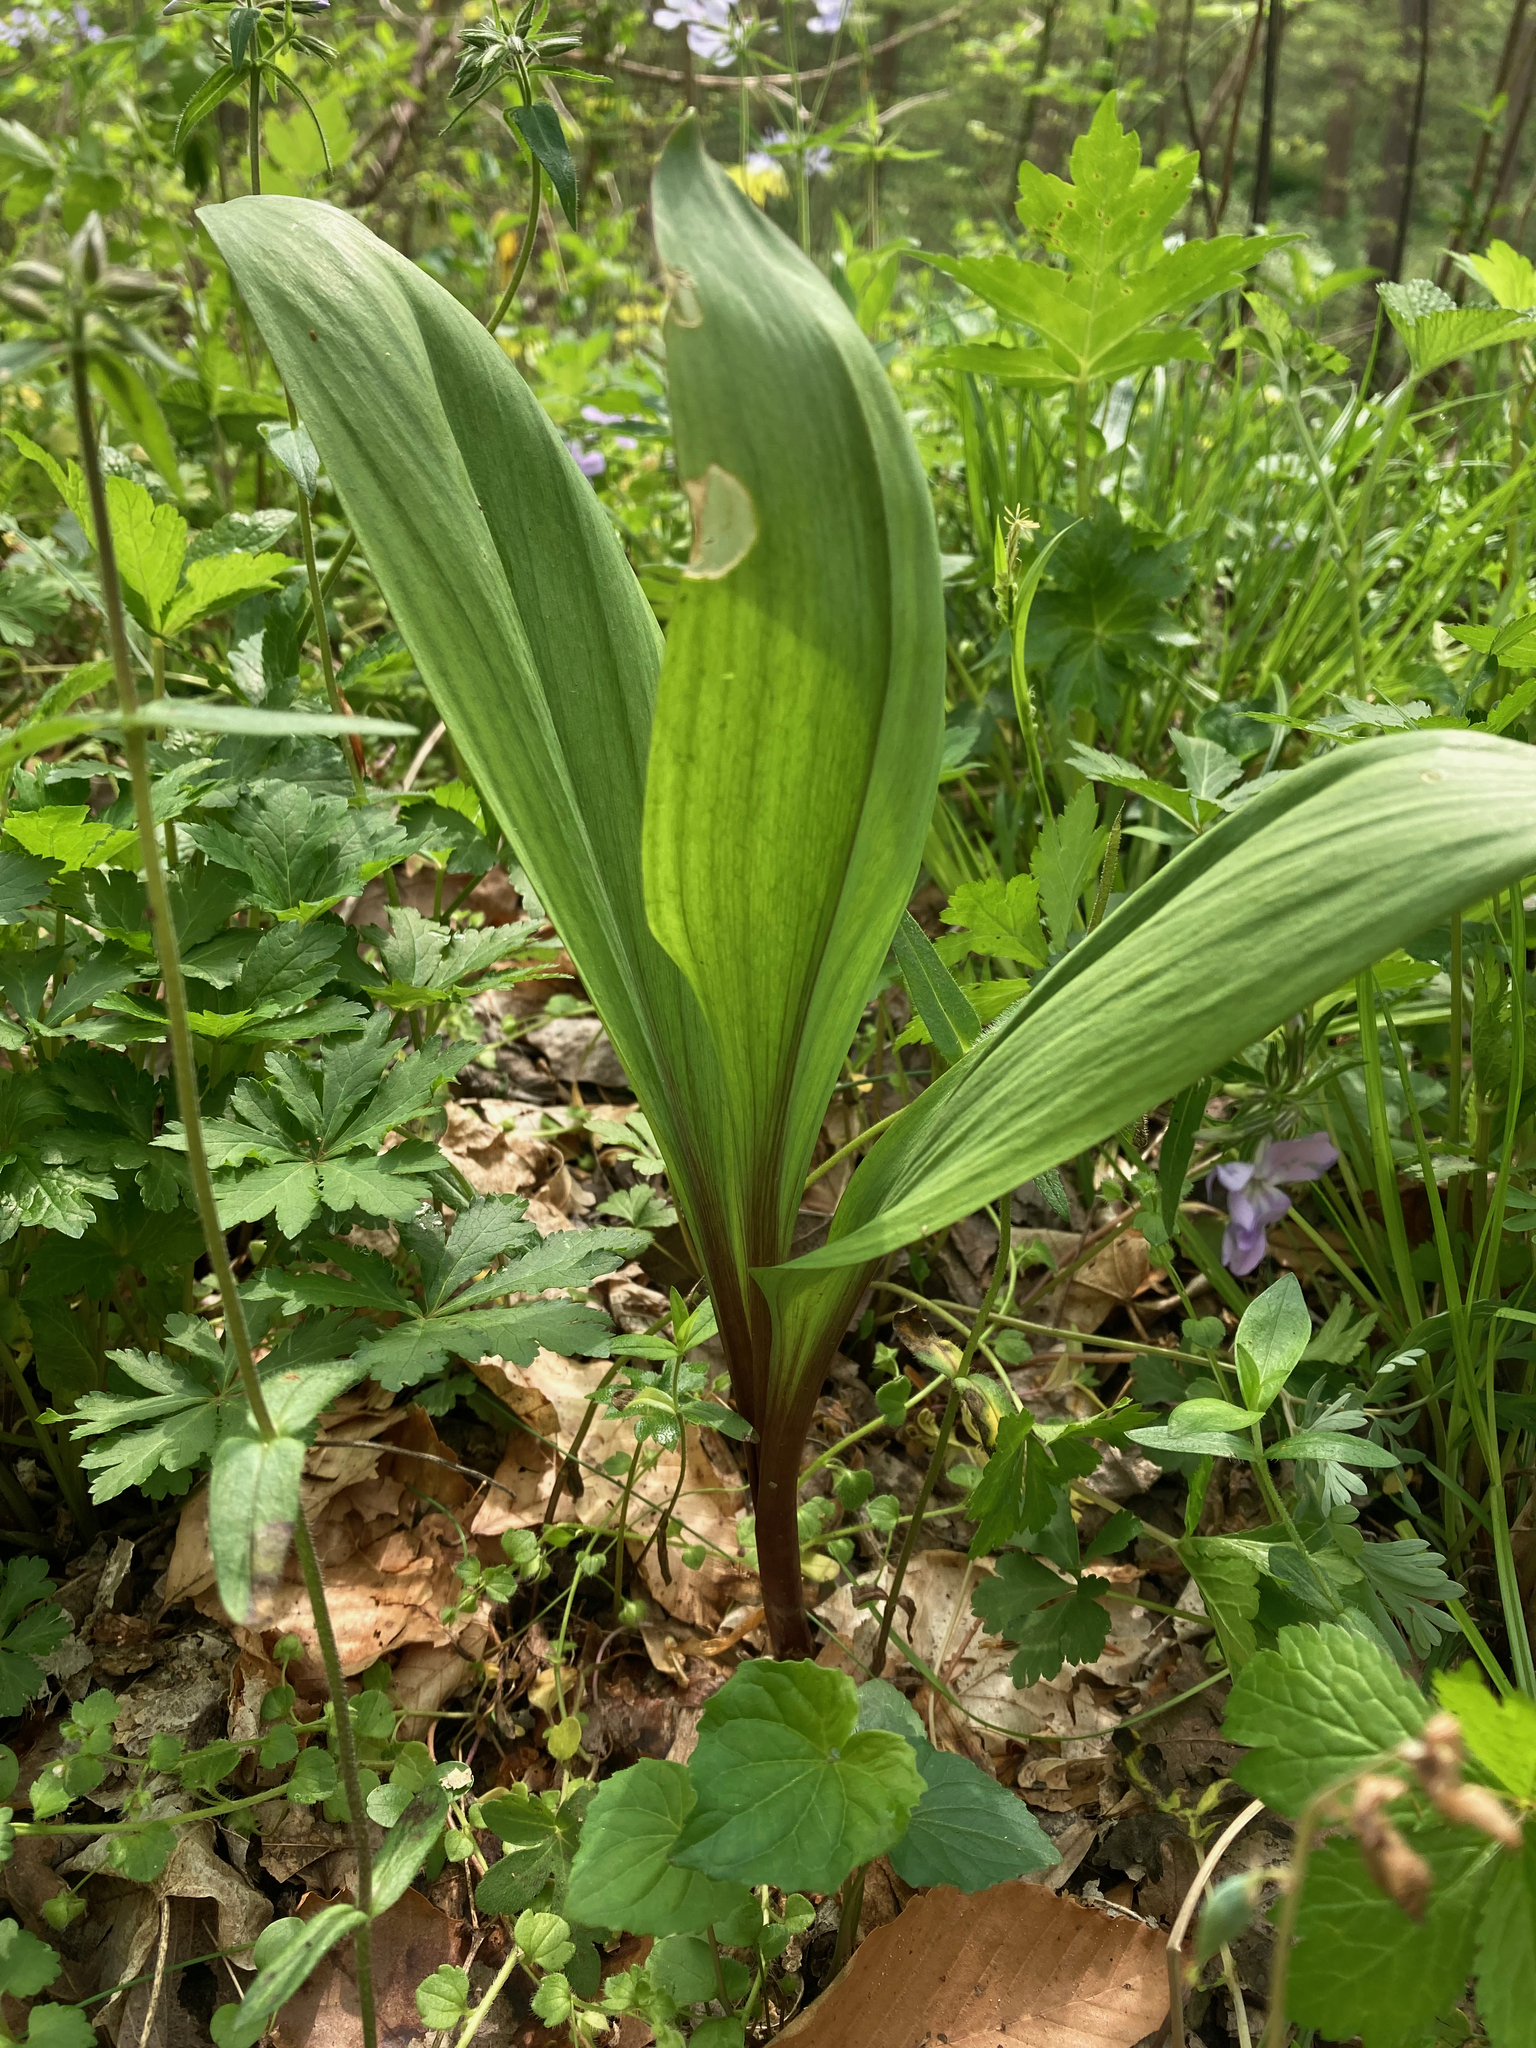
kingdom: Plantae
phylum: Tracheophyta
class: Liliopsida
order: Asparagales
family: Amaryllidaceae
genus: Allium
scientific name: Allium tricoccum
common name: Ramp
